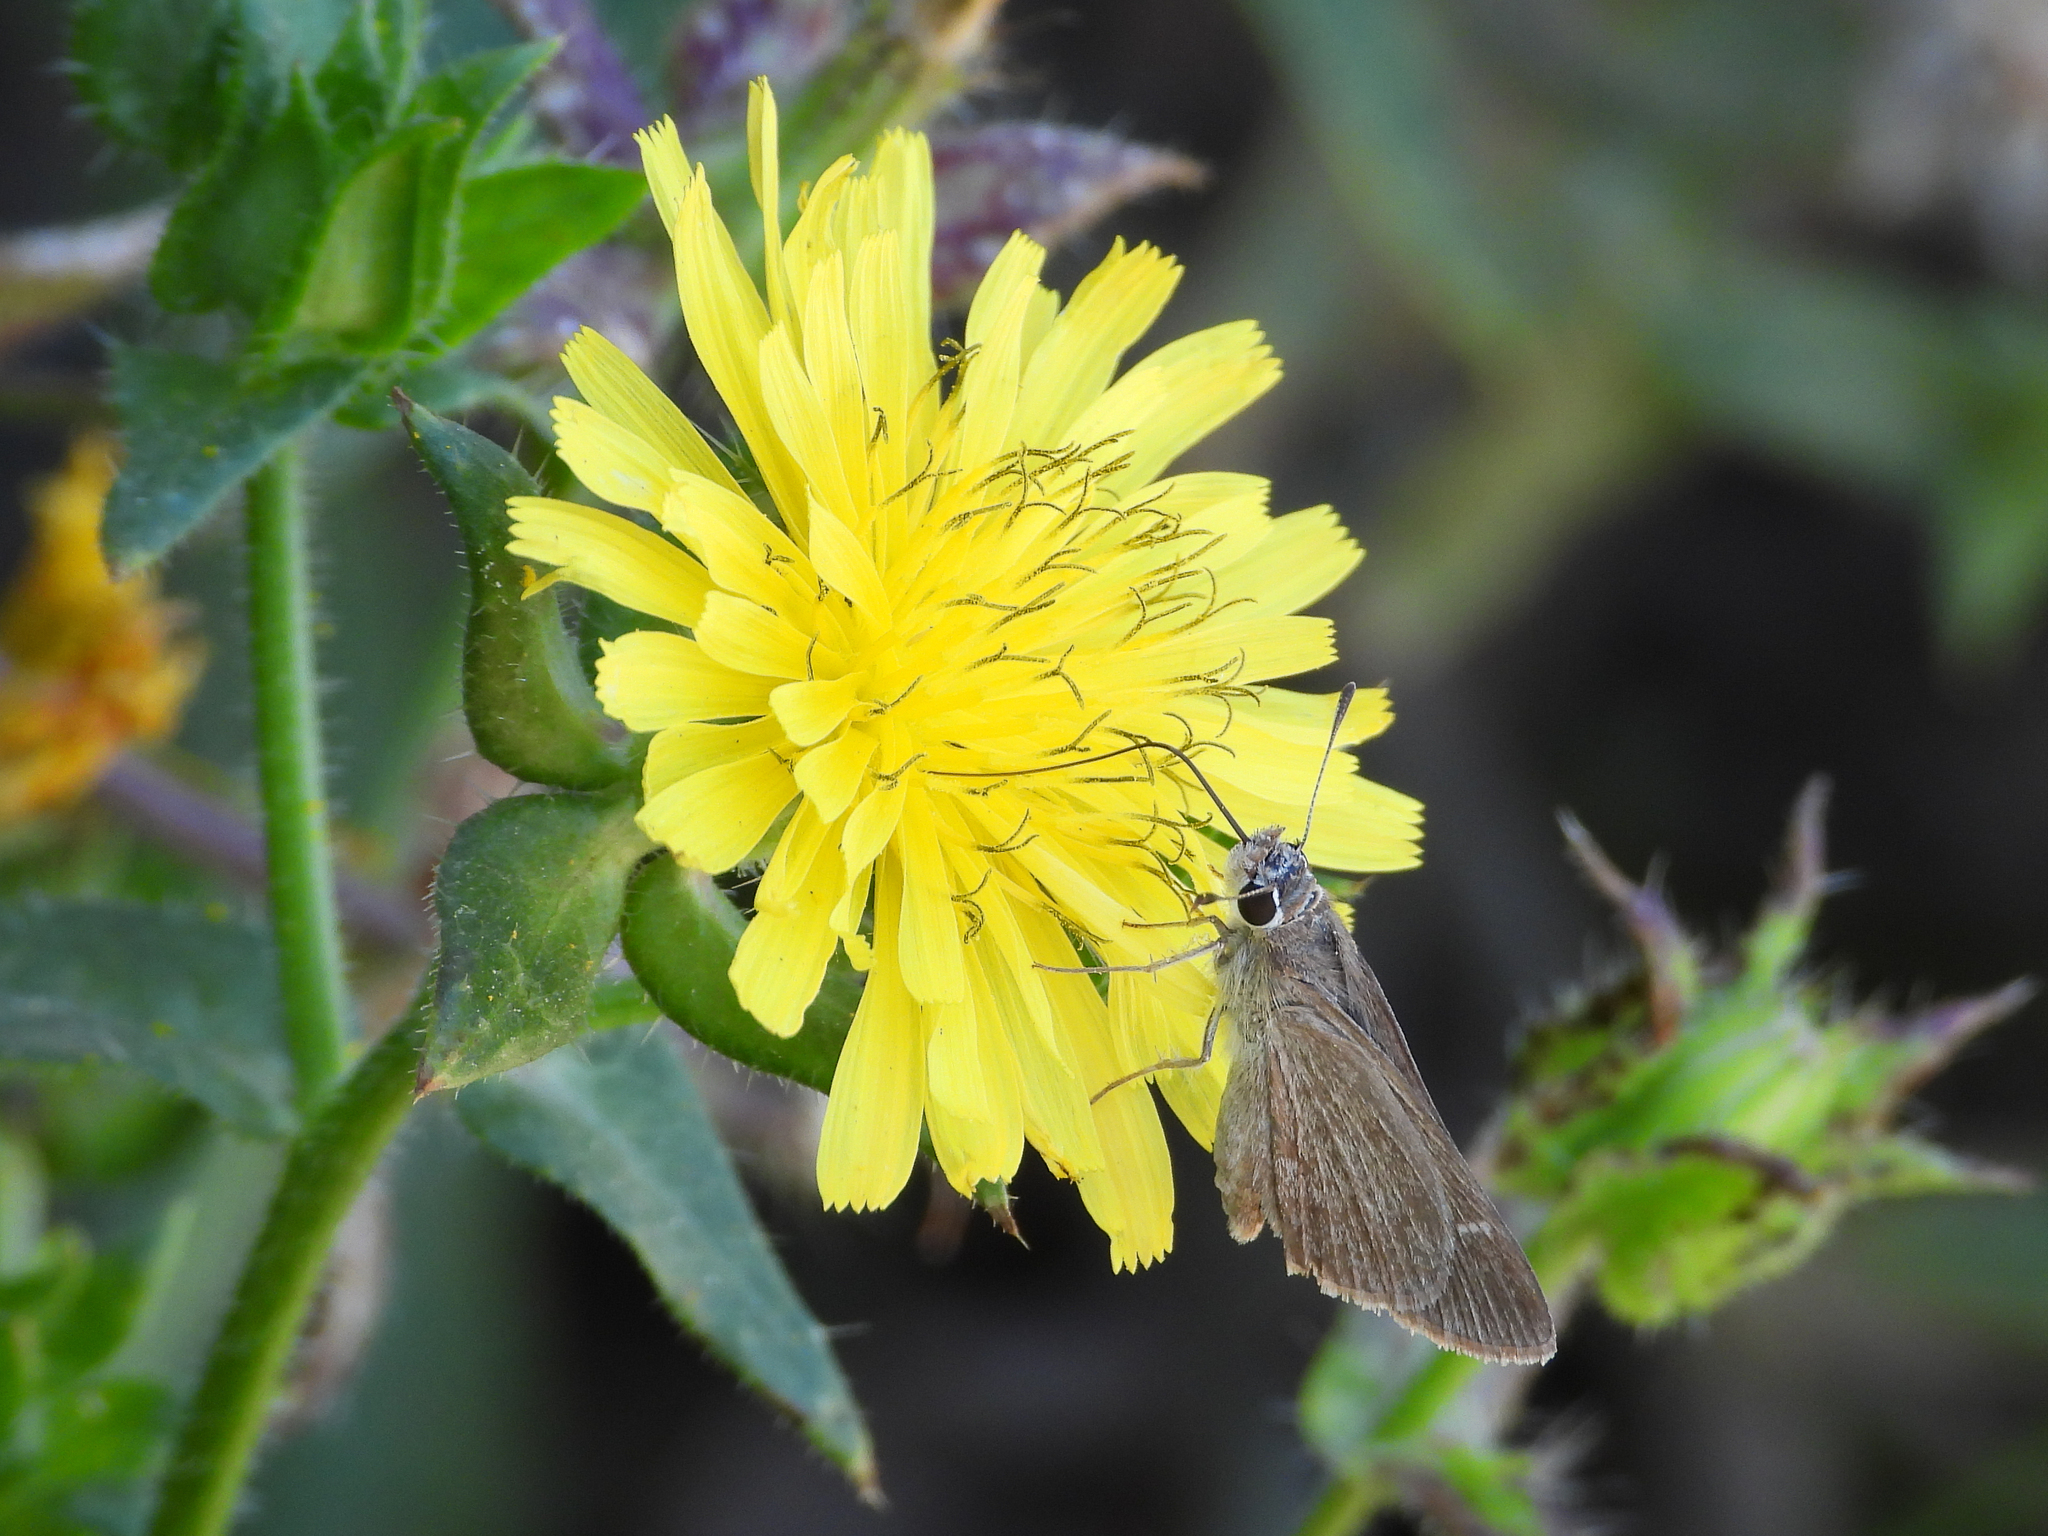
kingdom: Animalia
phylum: Arthropoda
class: Insecta
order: Lepidoptera
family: Hesperiidae
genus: Lerodea
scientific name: Lerodea eufala
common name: Eufala skipper
